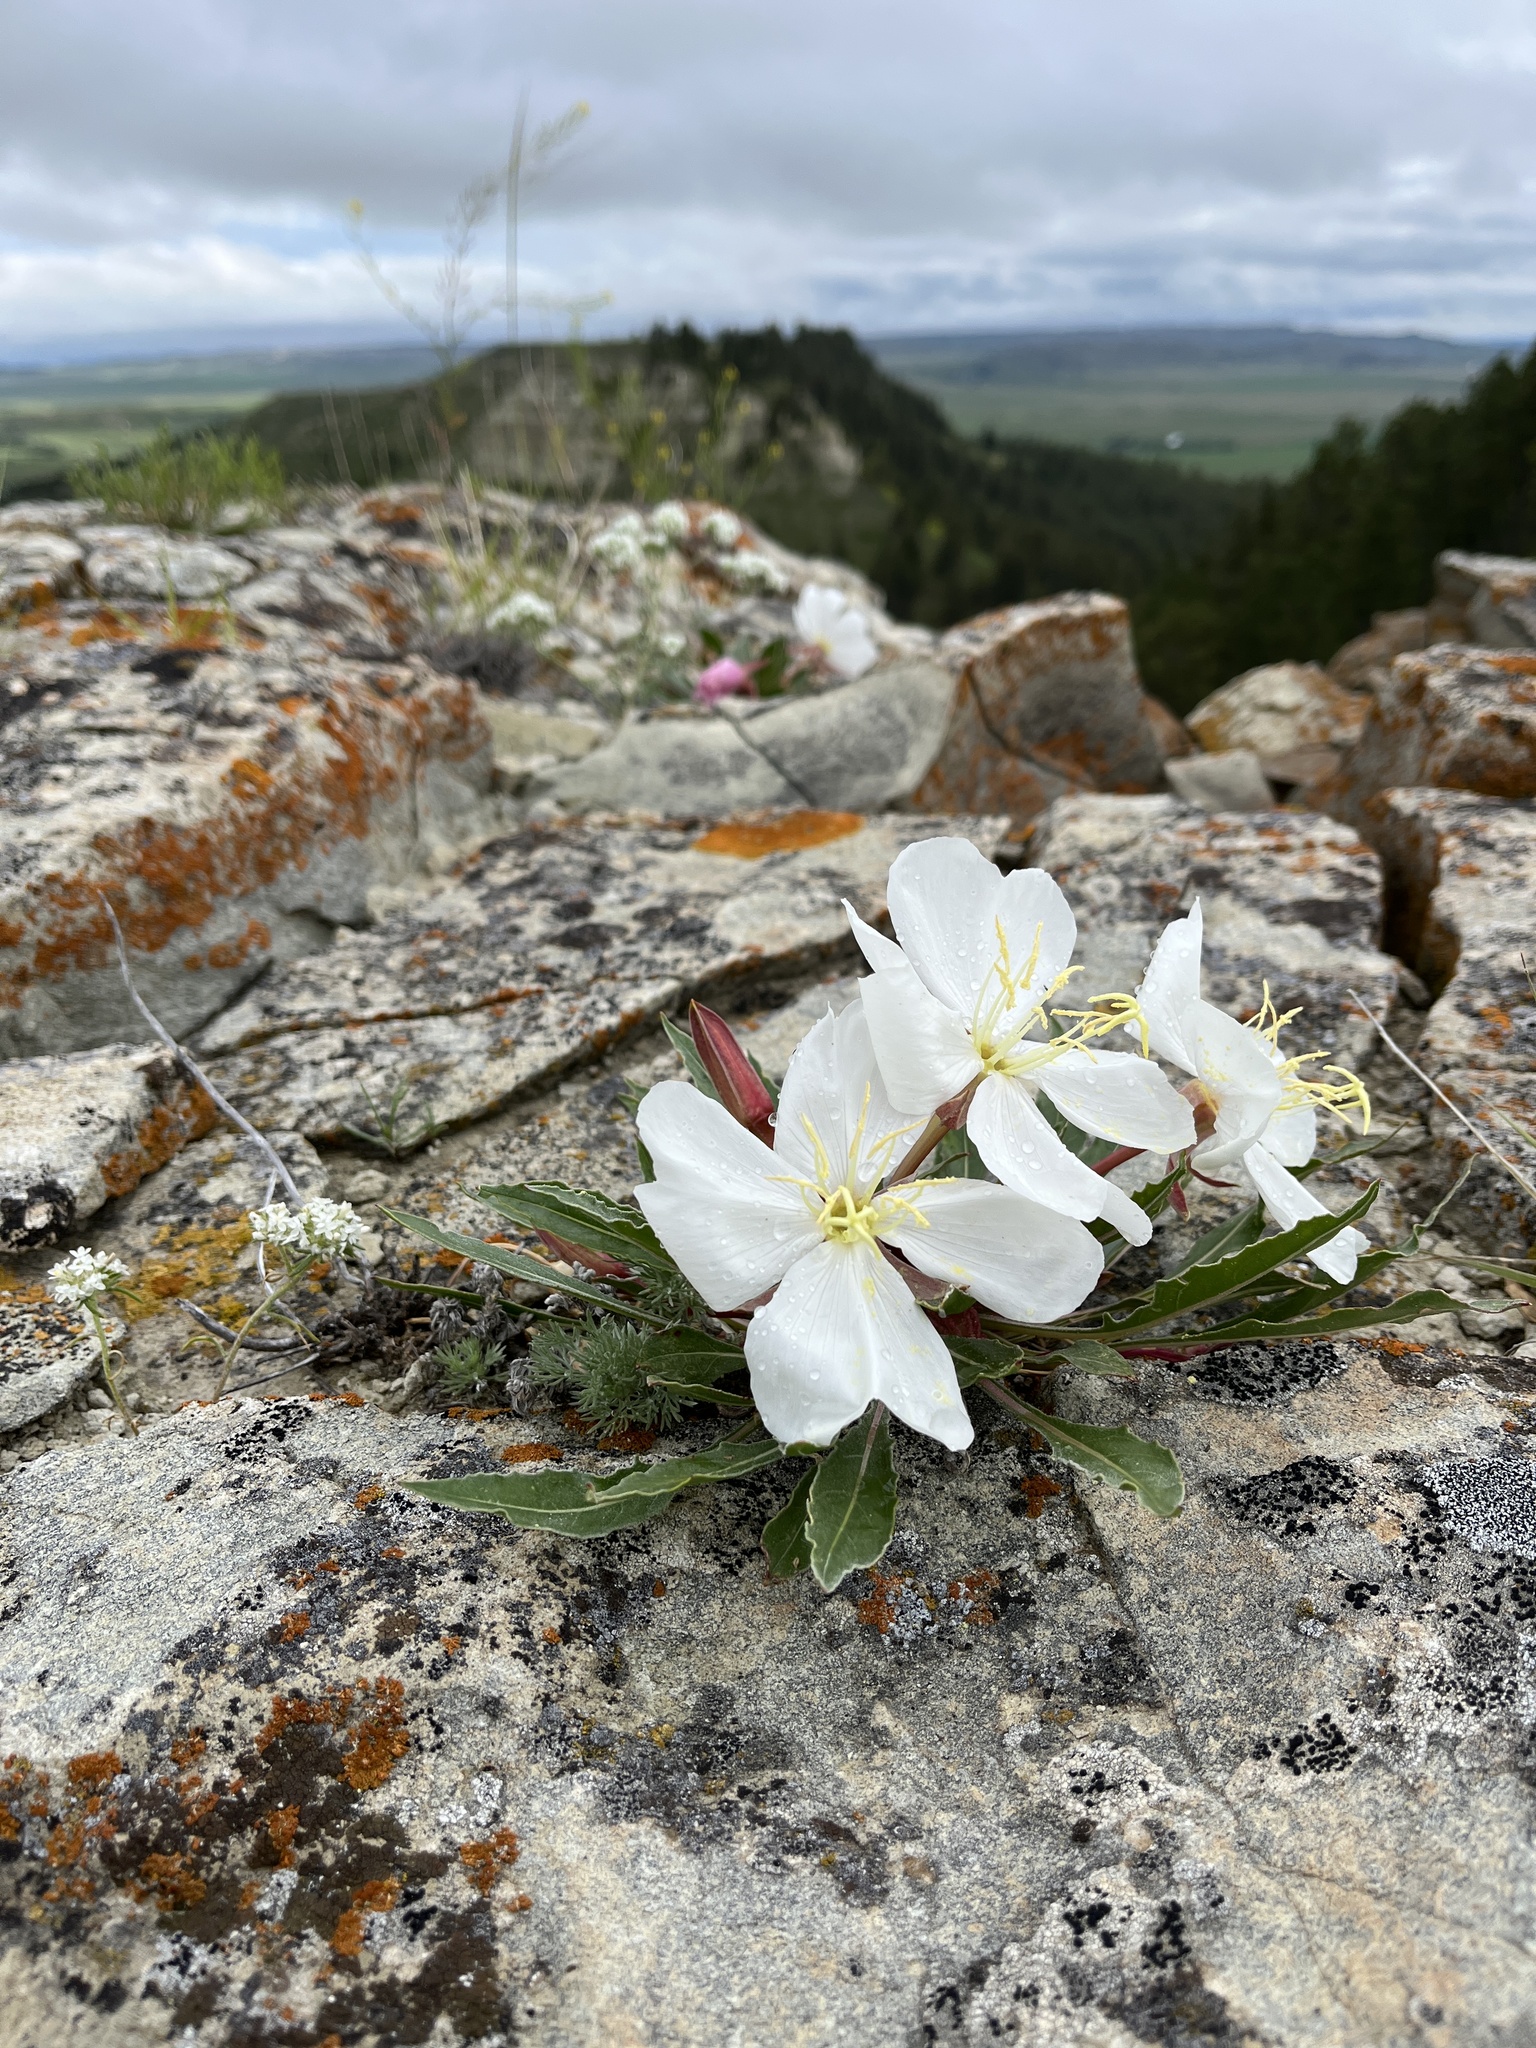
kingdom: Plantae
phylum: Tracheophyta
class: Magnoliopsida
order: Myrtales
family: Onagraceae
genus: Oenothera
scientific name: Oenothera cespitosa
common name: Tufted evening-primrose
